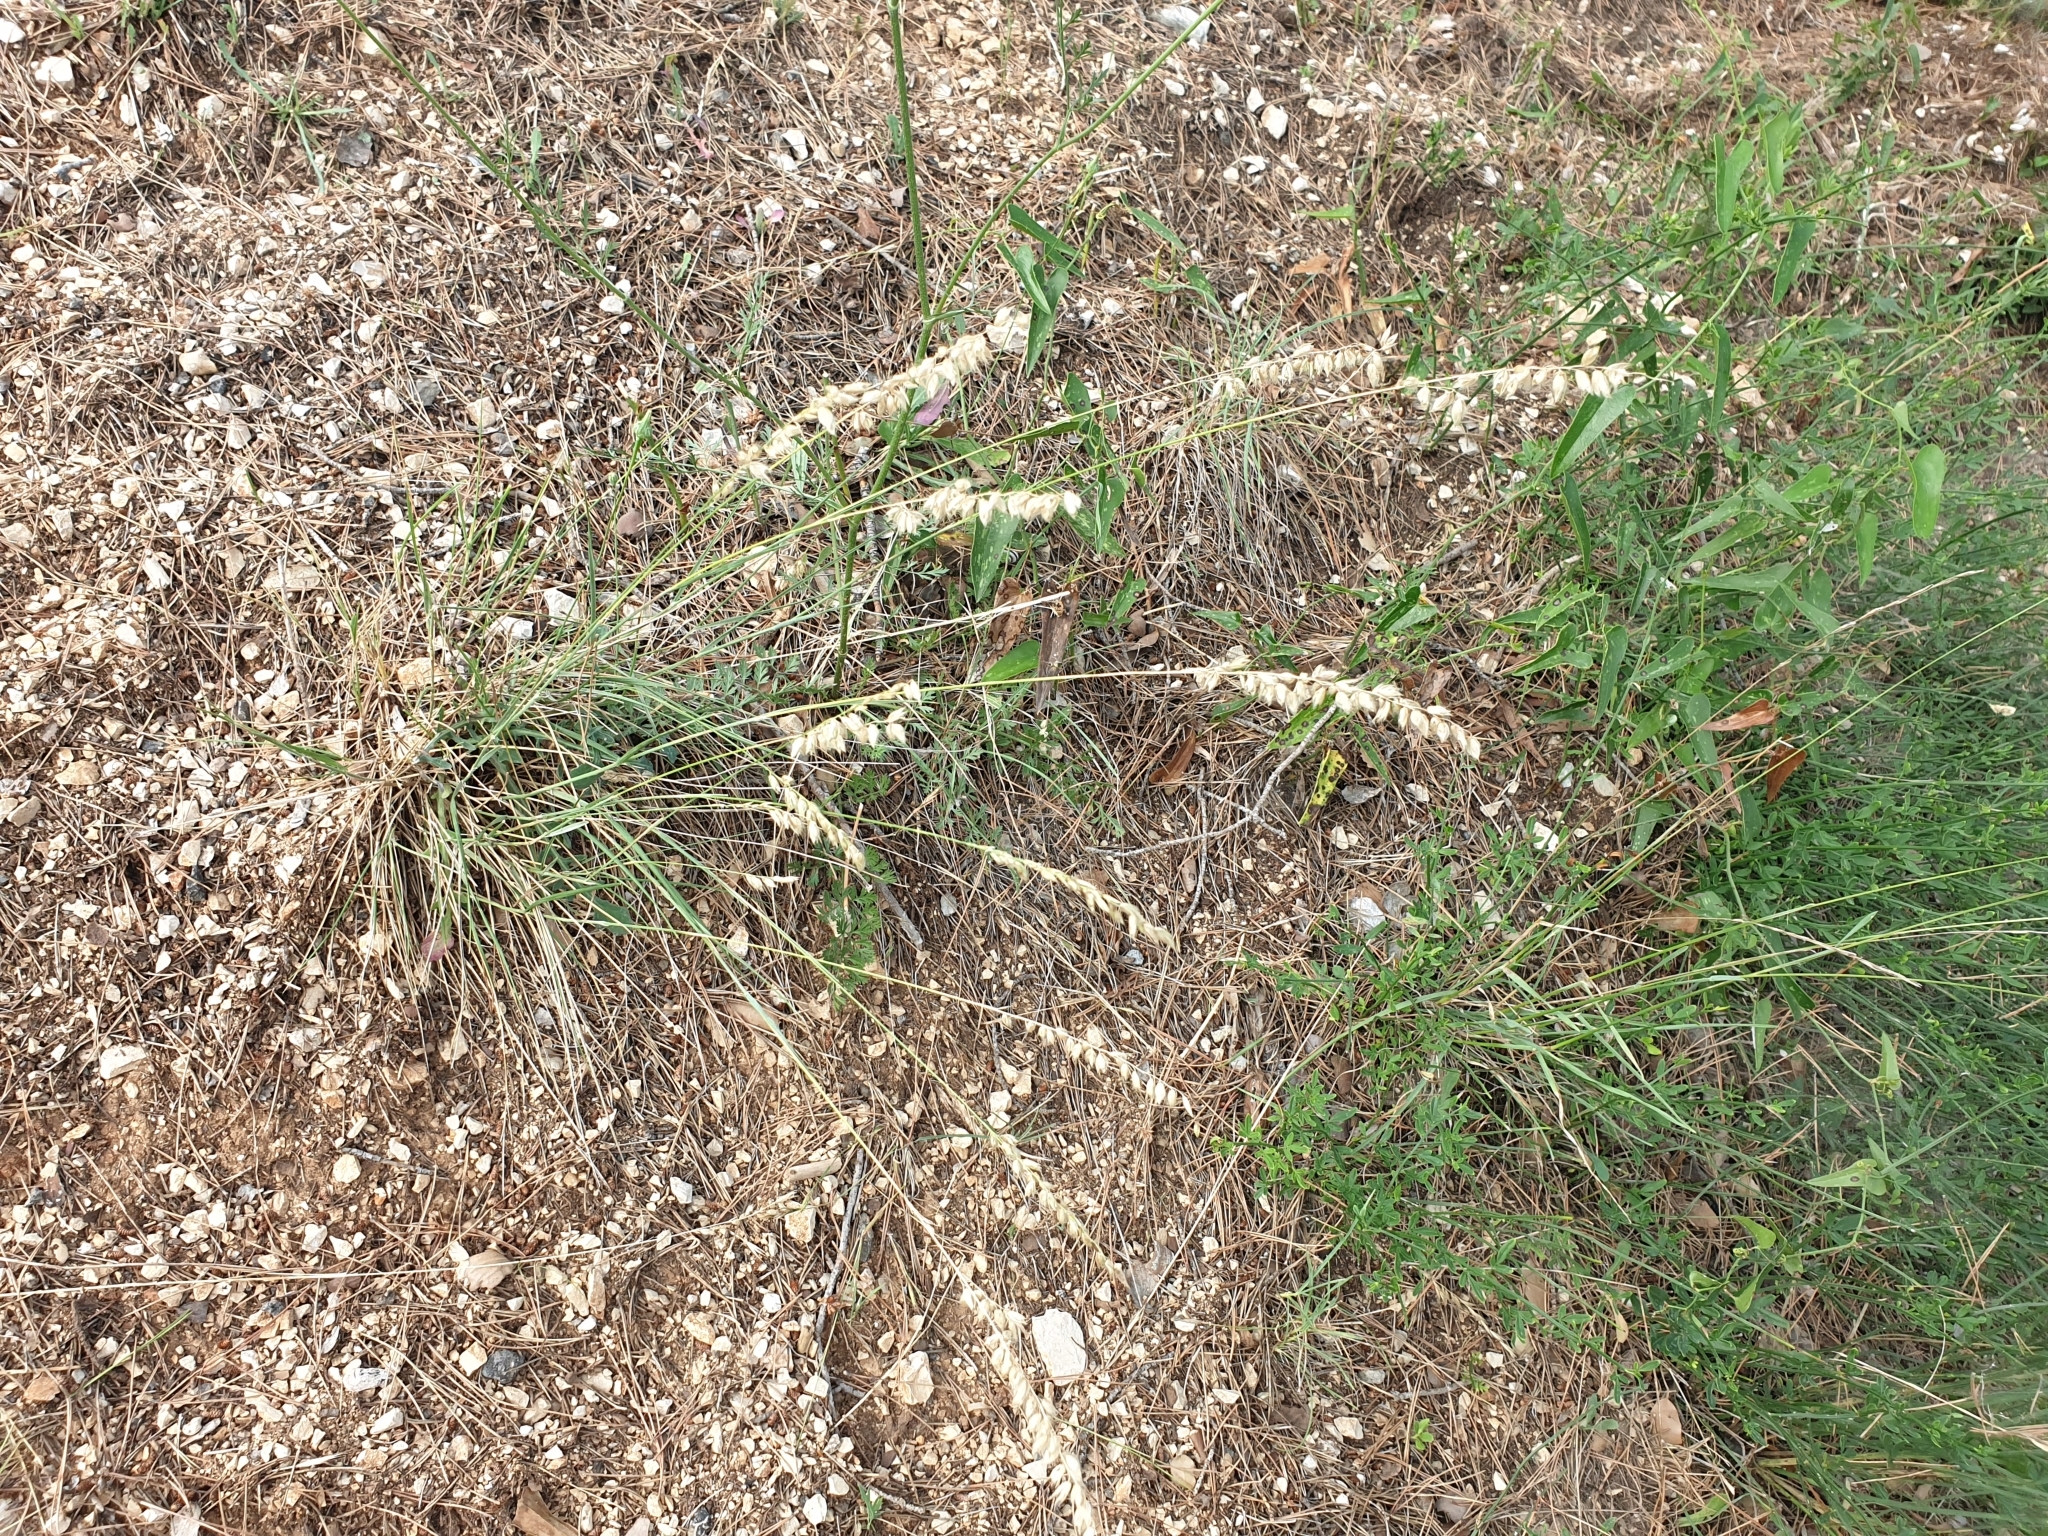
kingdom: Plantae
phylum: Tracheophyta
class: Liliopsida
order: Poales
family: Poaceae
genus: Melica
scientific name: Melica ciliata
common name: Hairy melicgrass
